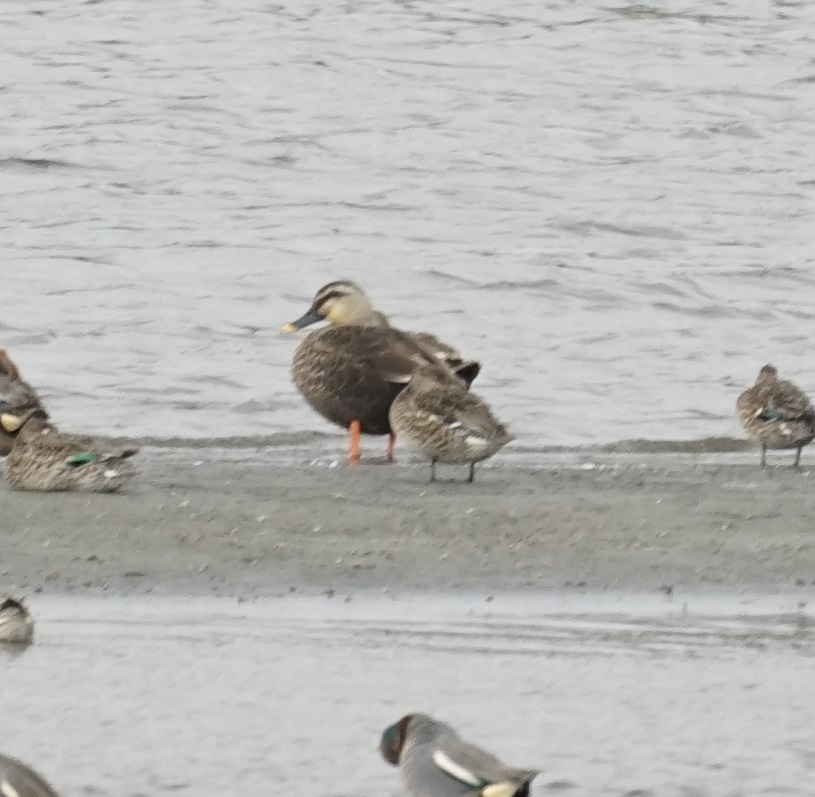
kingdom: Animalia
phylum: Chordata
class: Aves
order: Anseriformes
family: Anatidae
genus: Anas
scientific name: Anas zonorhyncha
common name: Eastern spot-billed duck
